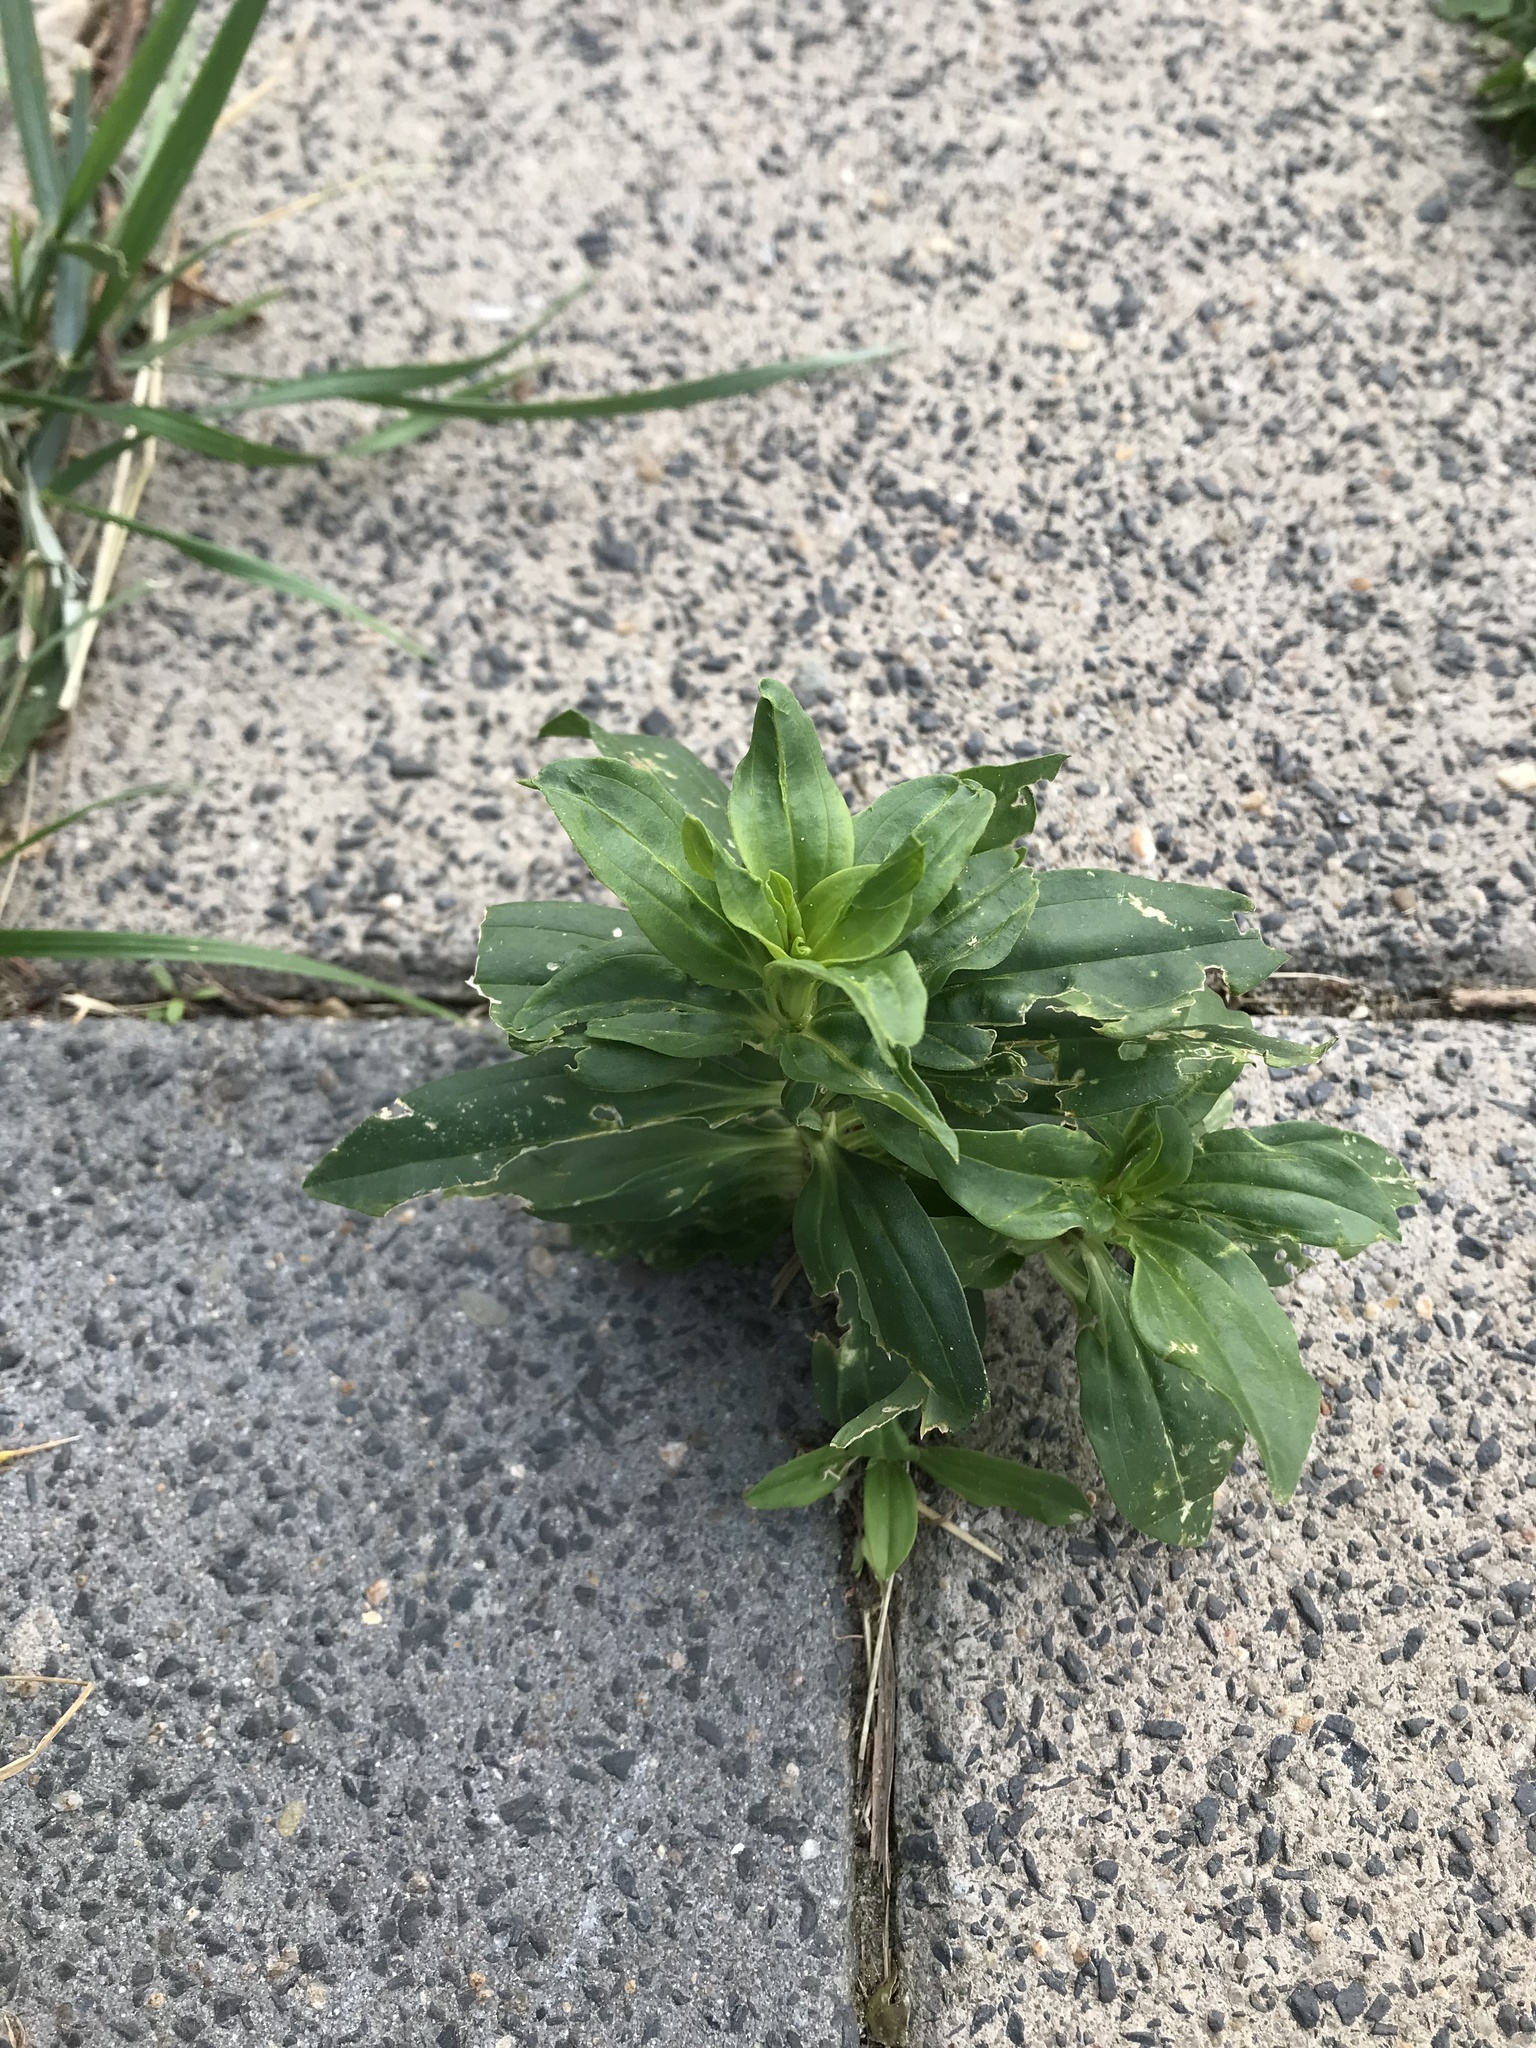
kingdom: Plantae
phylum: Tracheophyta
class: Magnoliopsida
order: Caryophyllales
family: Caryophyllaceae
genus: Saponaria
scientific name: Saponaria officinalis
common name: Soapwort
